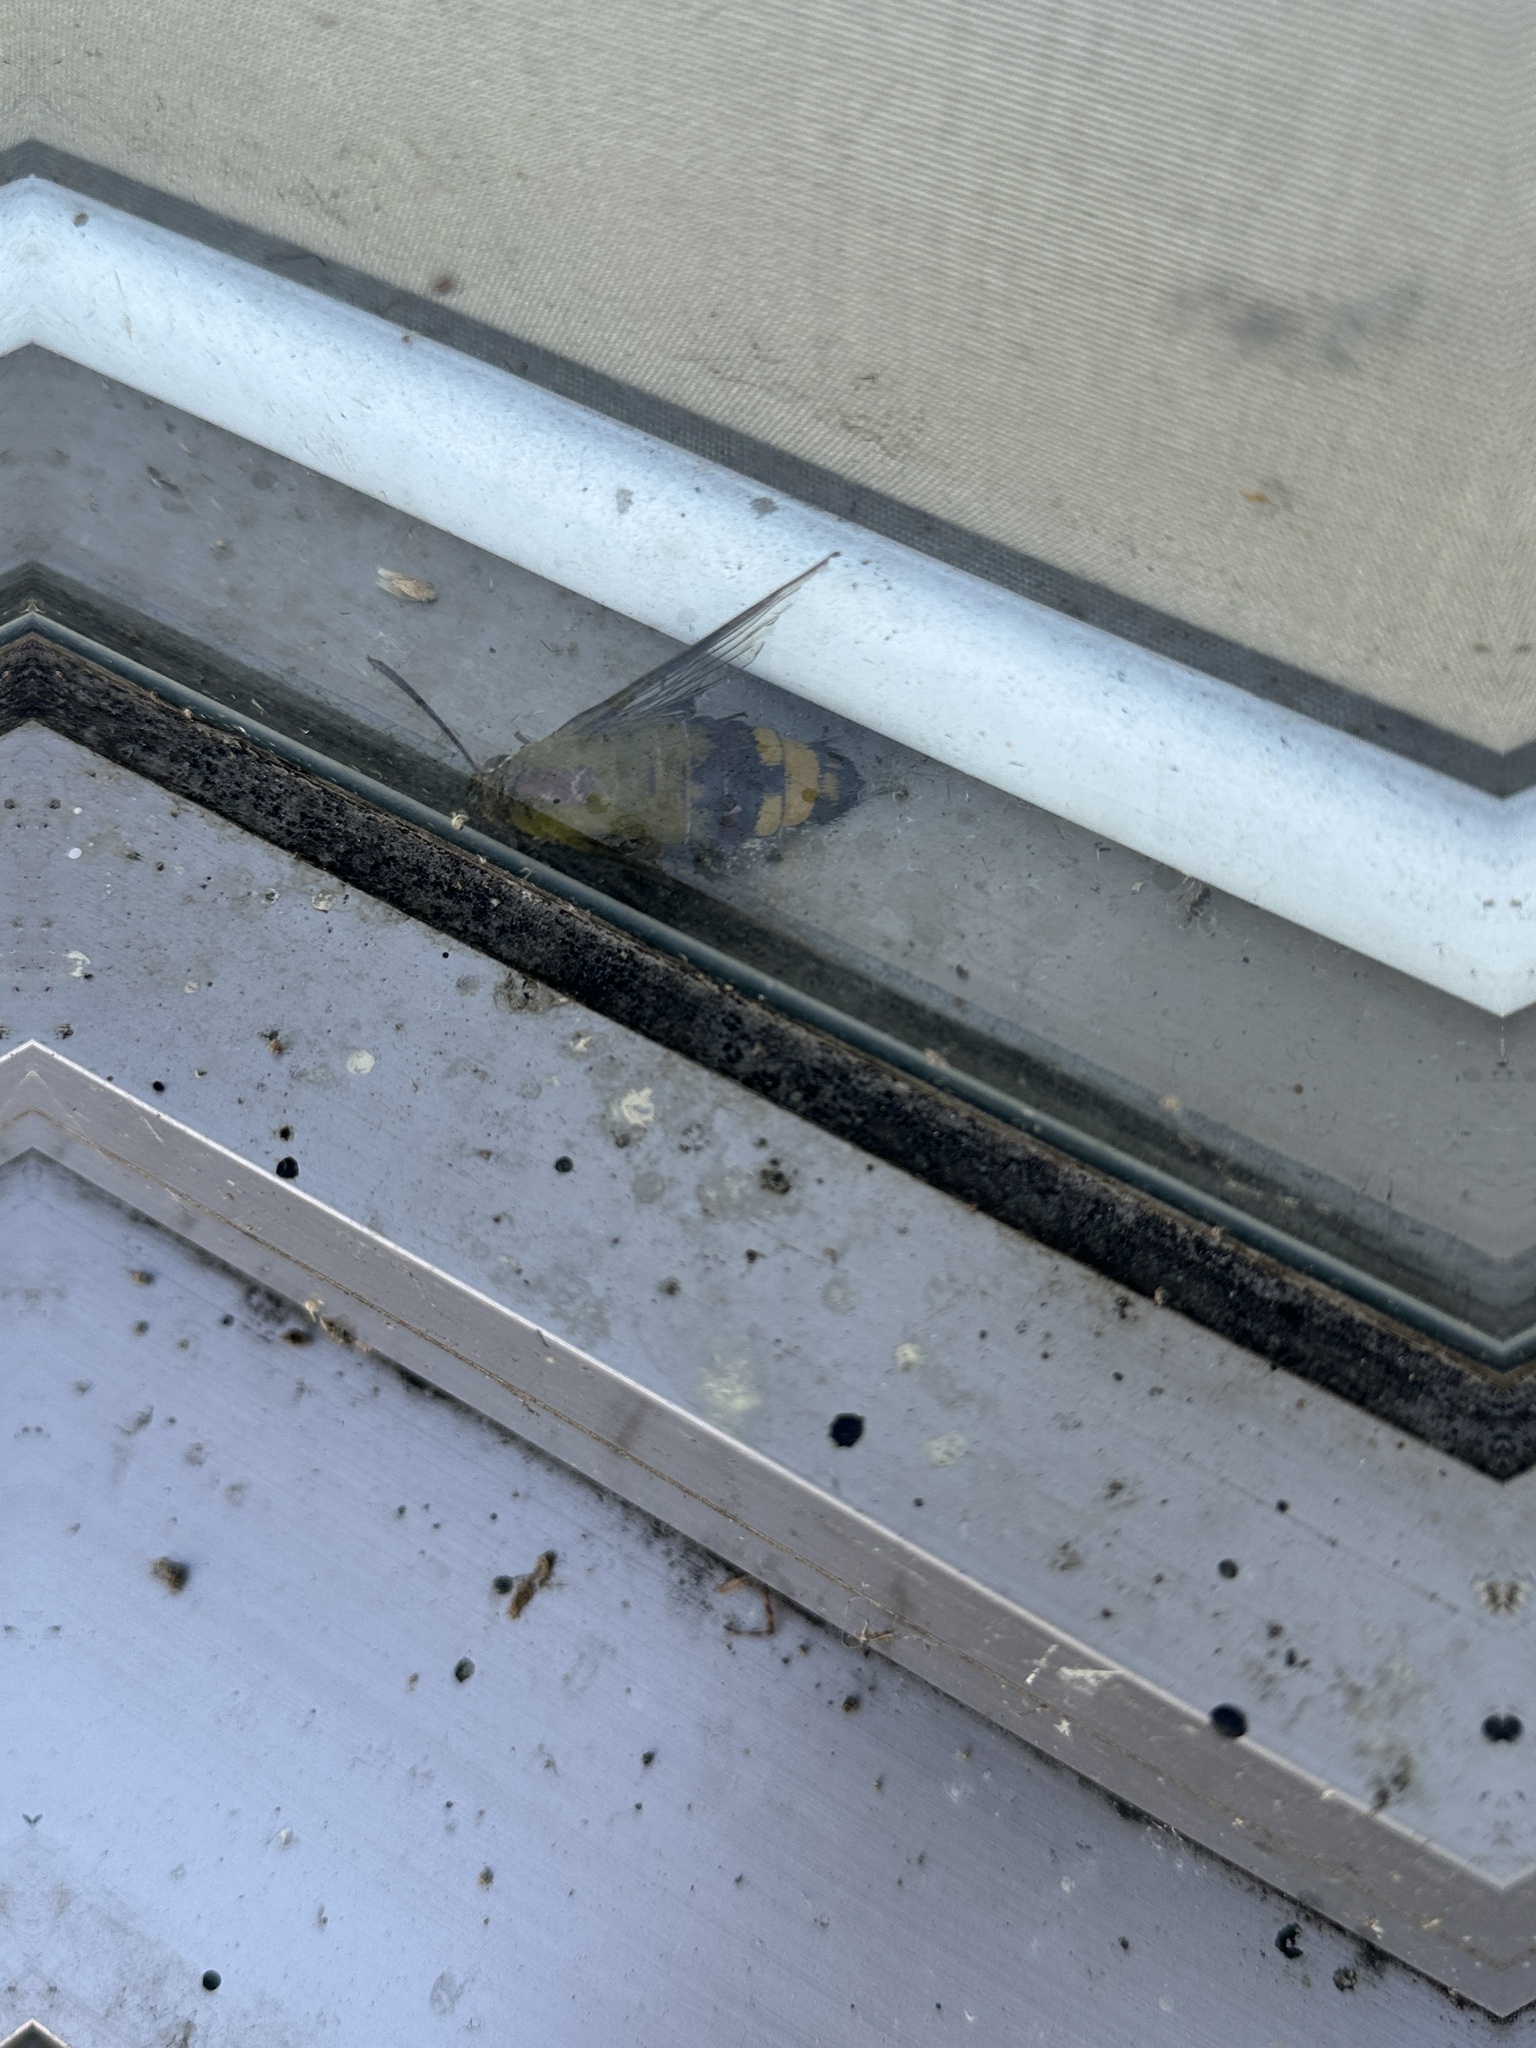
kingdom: Animalia
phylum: Arthropoda
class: Insecta
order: Lepidoptera
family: Sphingidae
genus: Cephonodes
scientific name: Cephonodes hylas
